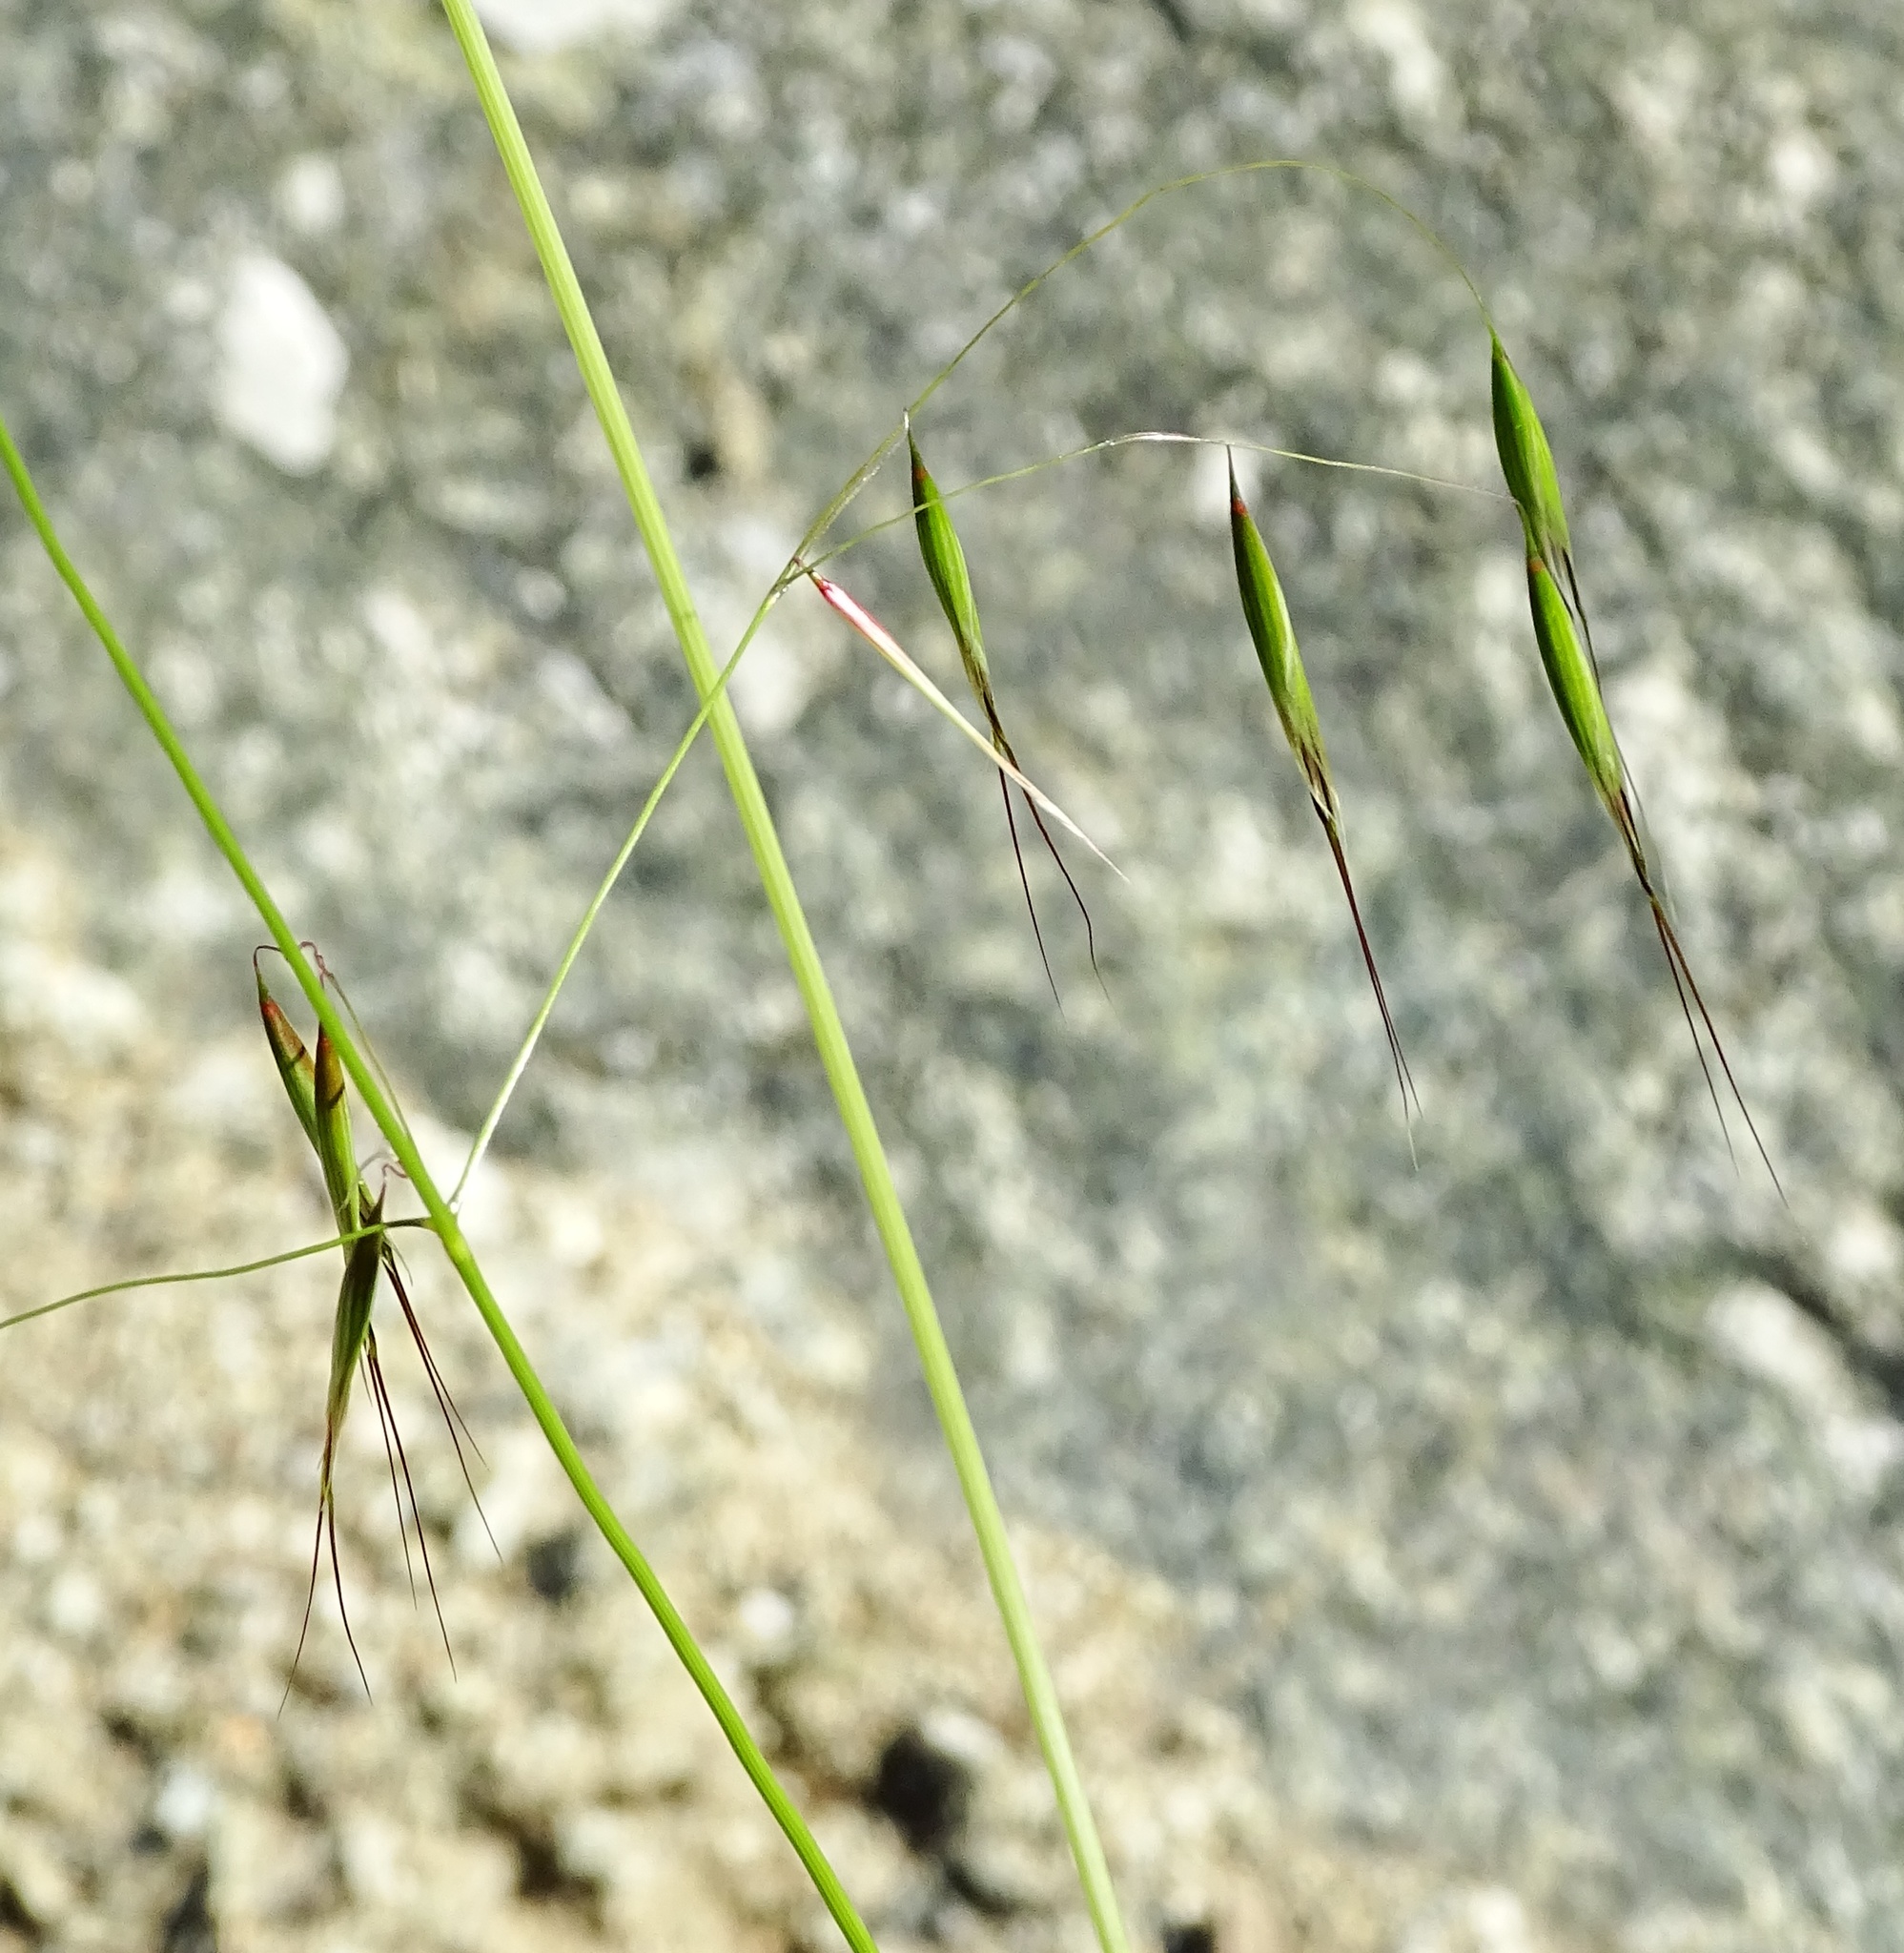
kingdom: Plantae
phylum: Tracheophyta
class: Liliopsida
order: Poales
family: Poaceae
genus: Avena
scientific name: Avena barbata
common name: Slender oat
